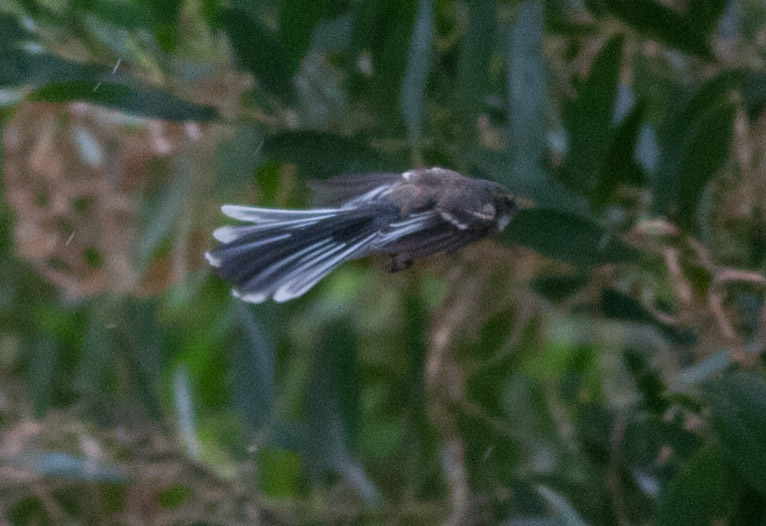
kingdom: Animalia
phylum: Chordata
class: Aves
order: Passeriformes
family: Rhipiduridae
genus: Rhipidura
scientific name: Rhipidura albiscapa
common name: Grey fantail
